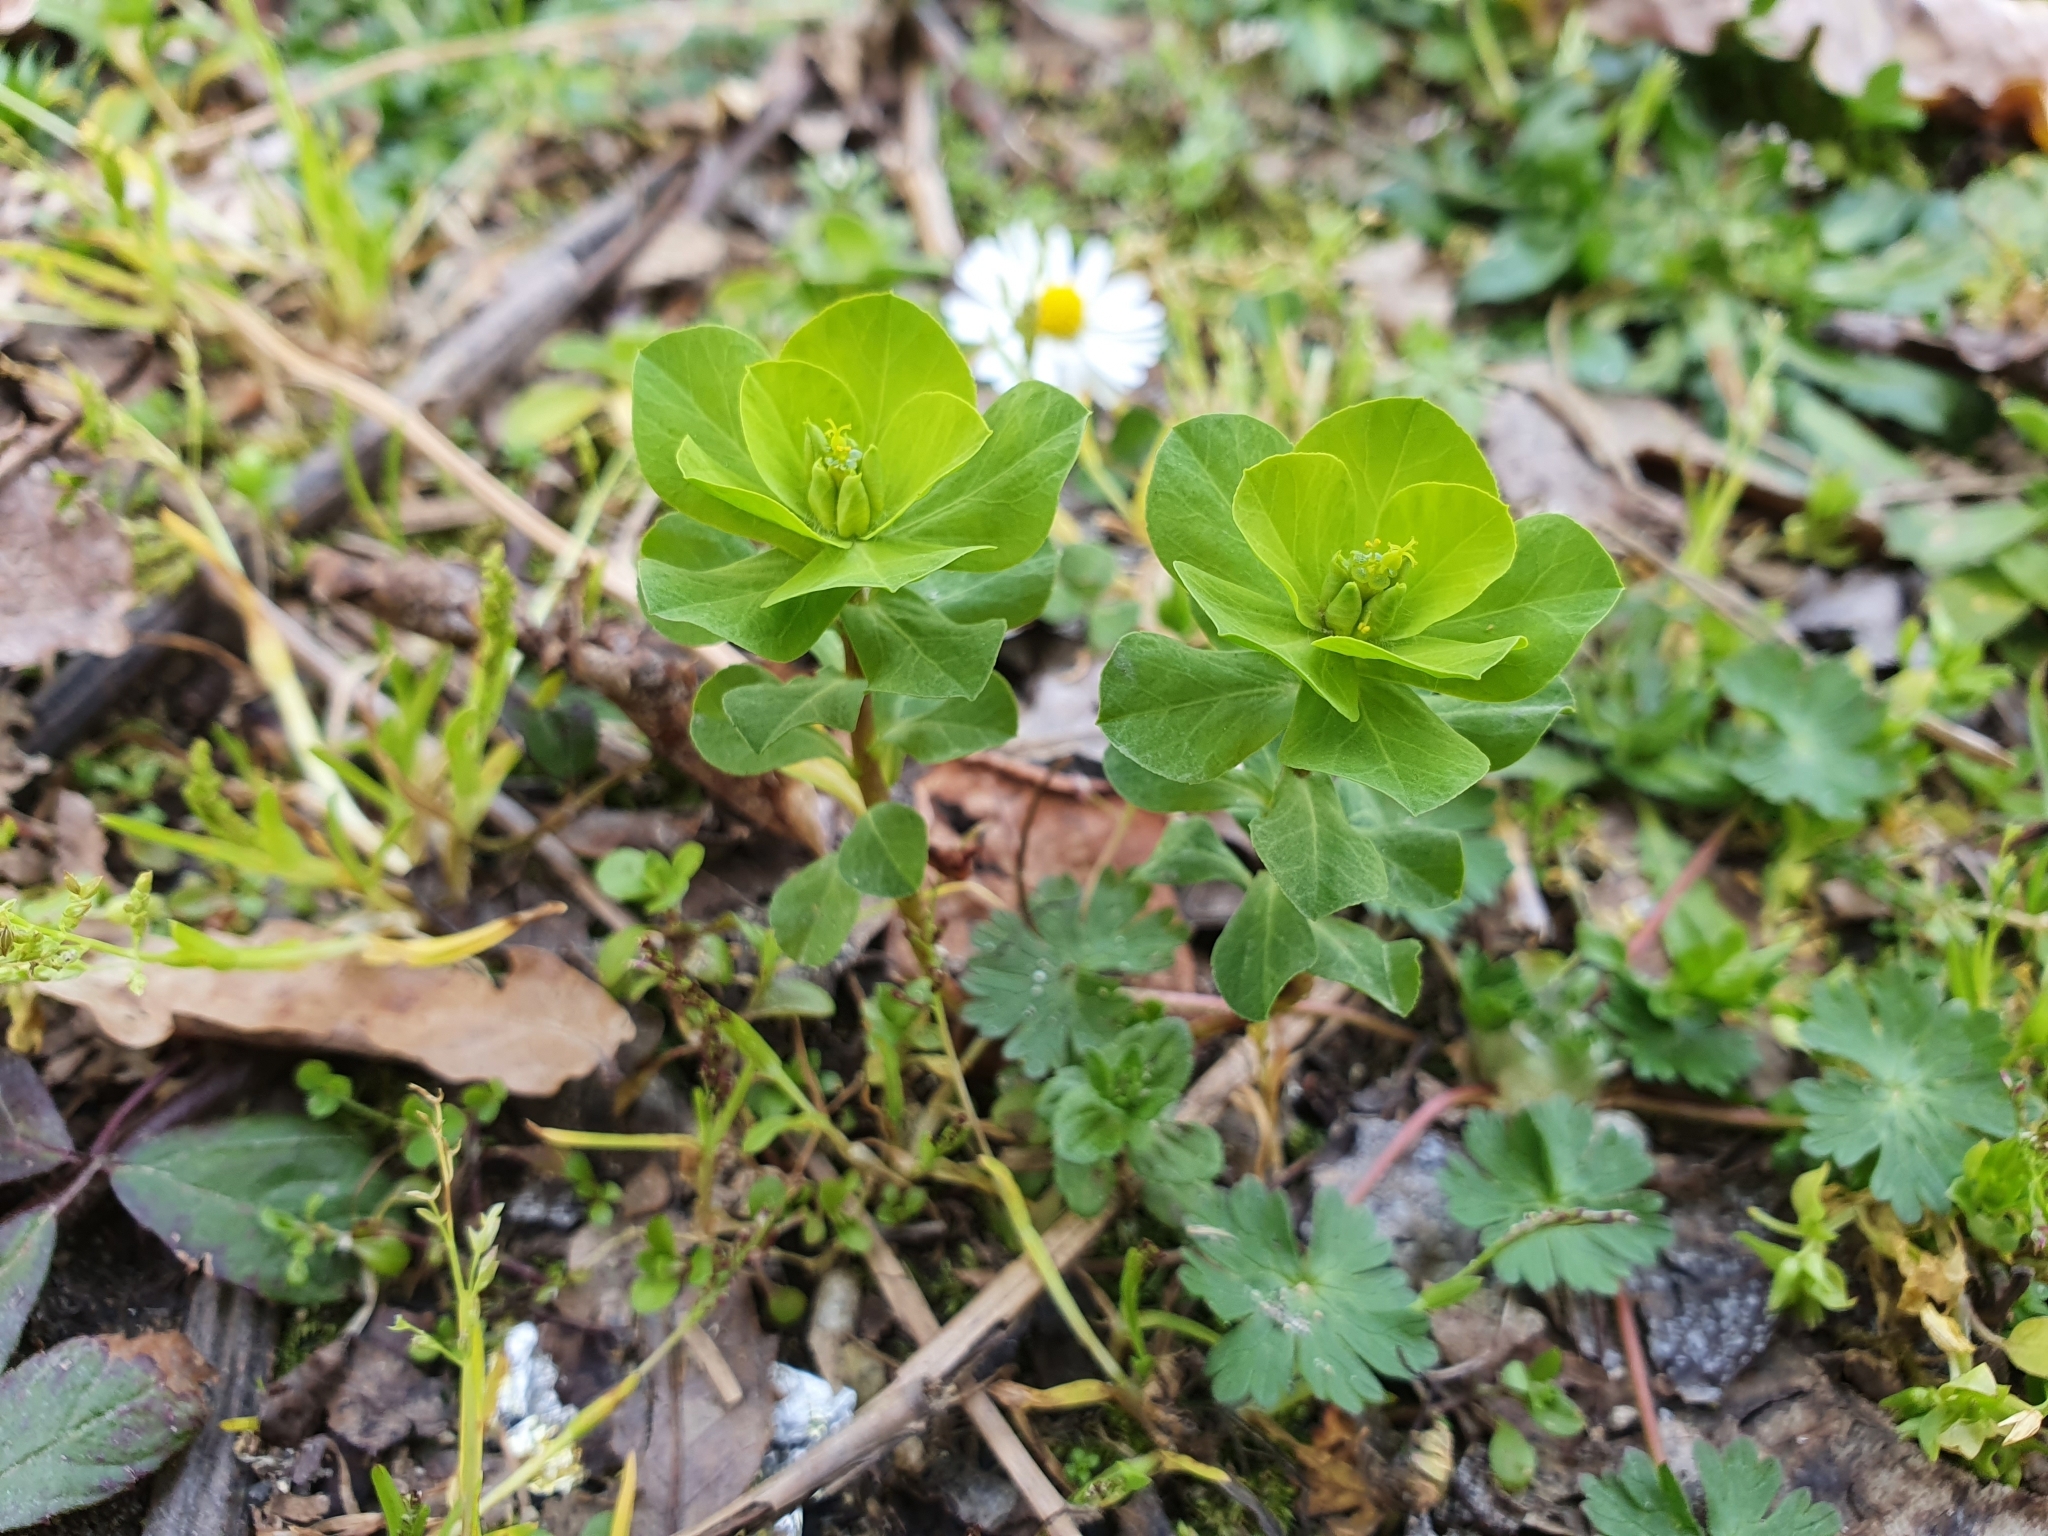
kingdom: Plantae
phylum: Tracheophyta
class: Magnoliopsida
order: Malpighiales
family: Euphorbiaceae
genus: Euphorbia
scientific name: Euphorbia helioscopia
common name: Sun spurge
